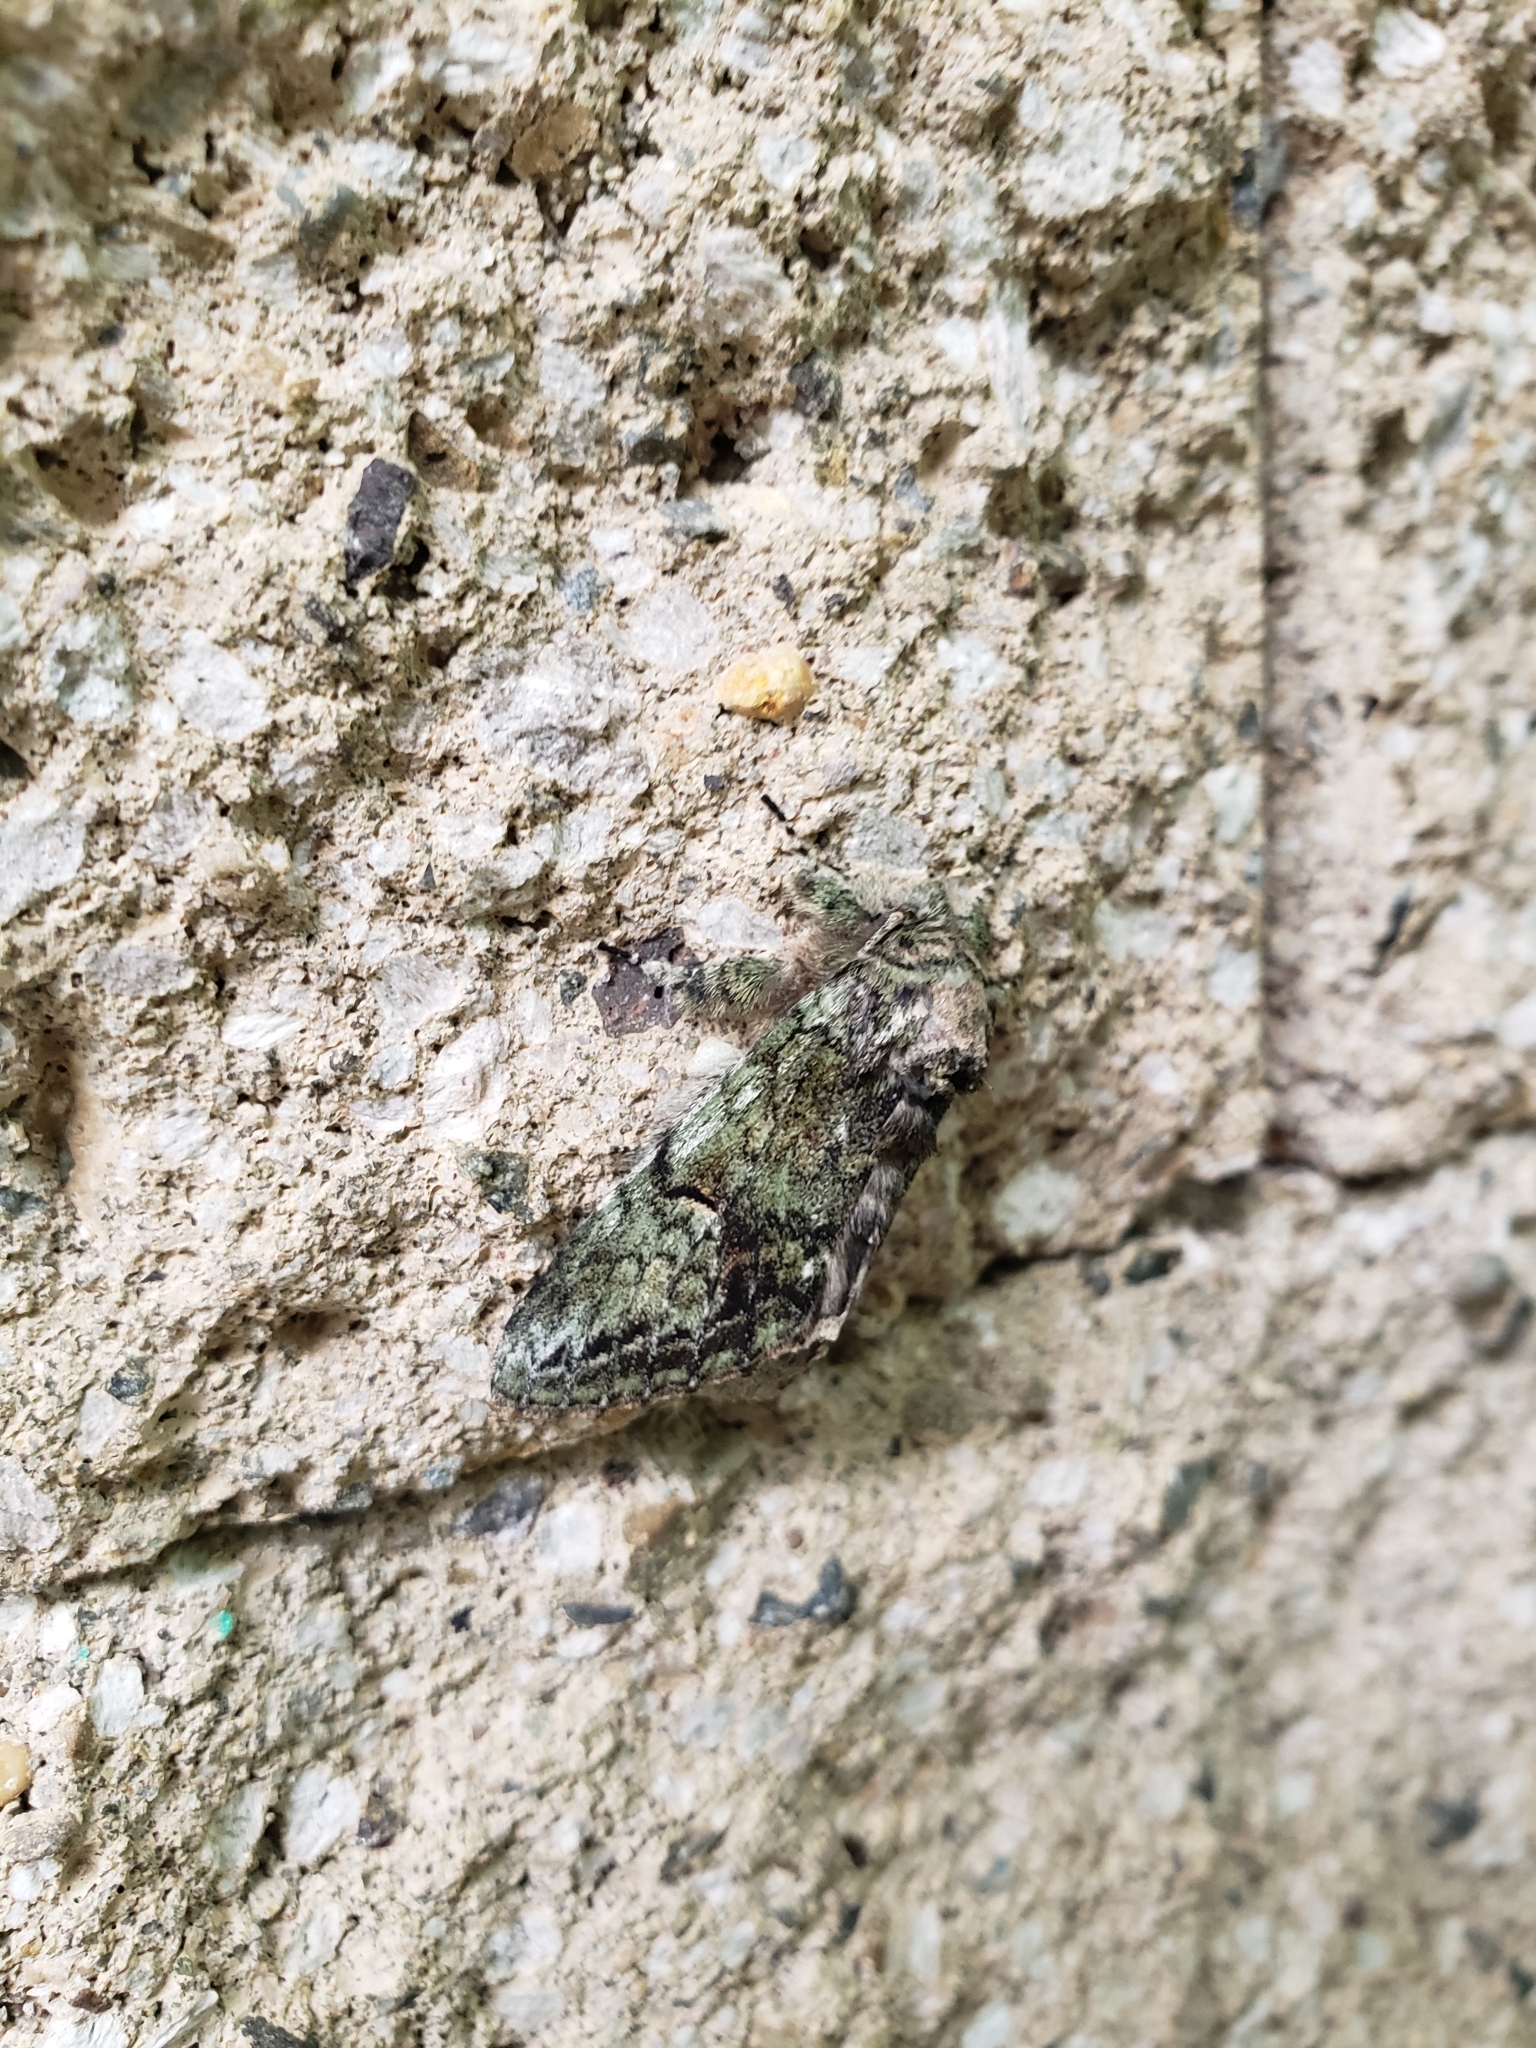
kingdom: Animalia
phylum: Arthropoda
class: Insecta
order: Lepidoptera
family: Notodontidae
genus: Heterocampa
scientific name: Heterocampa
